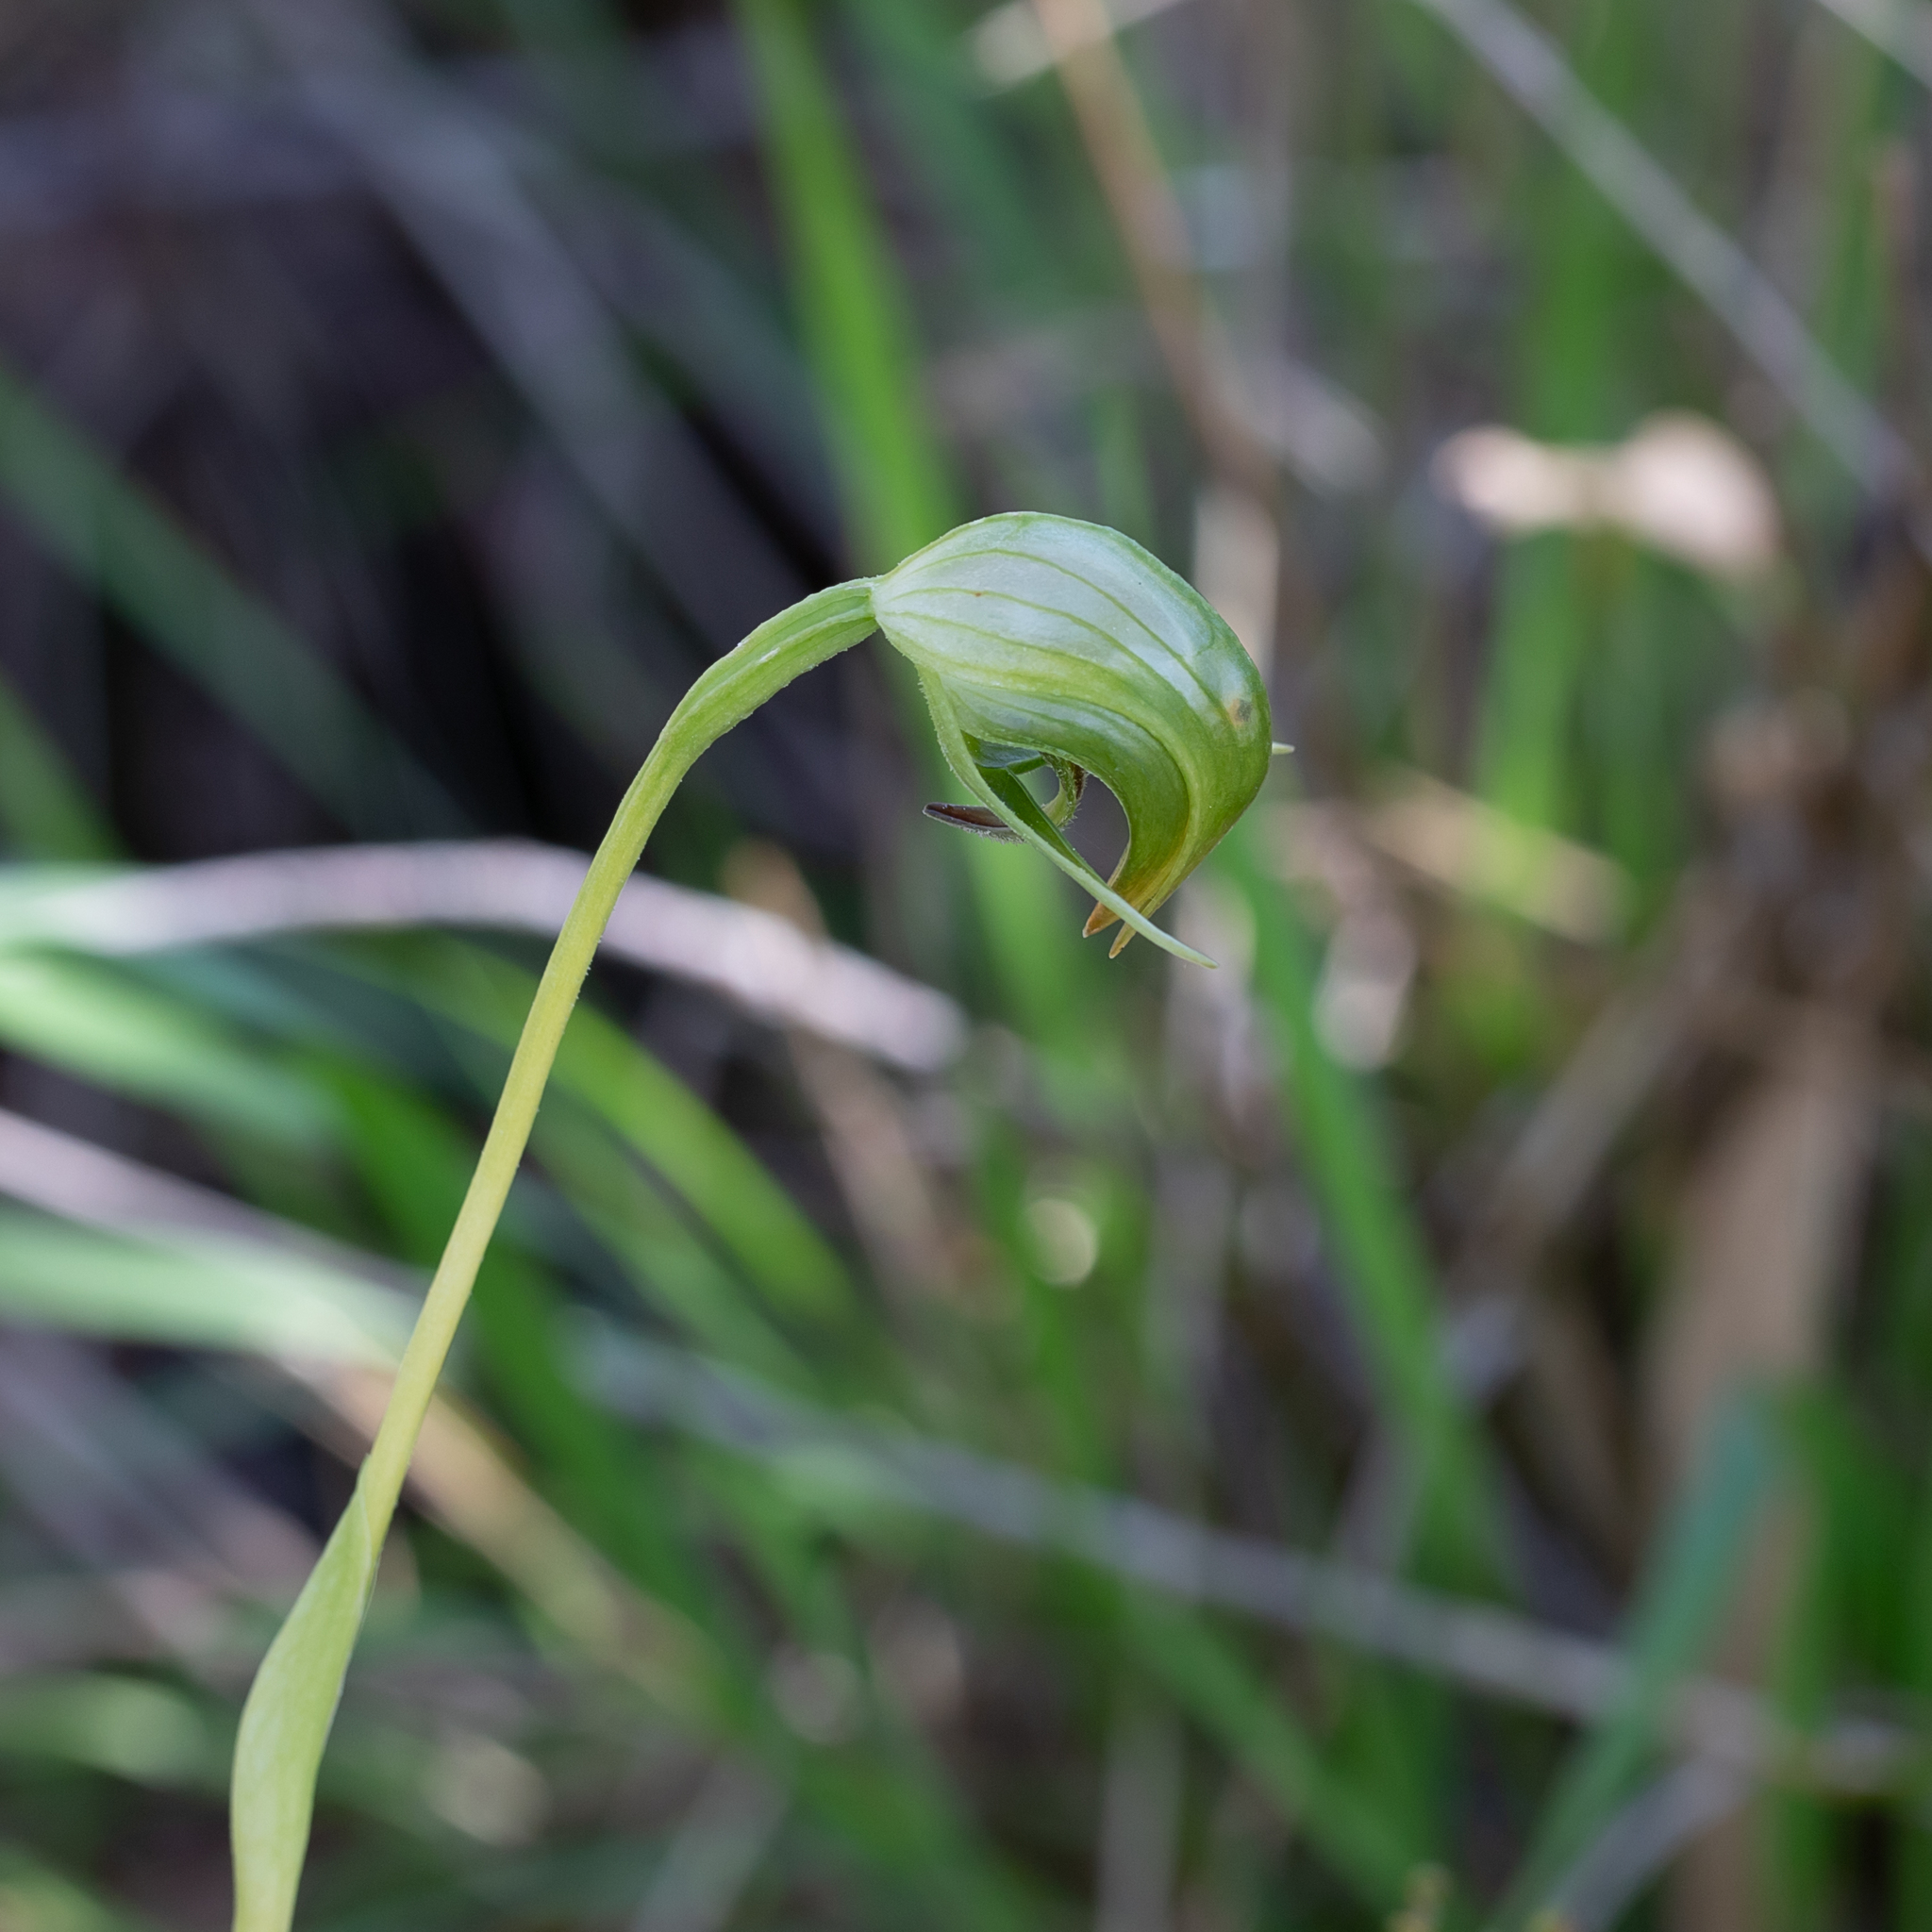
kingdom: Plantae
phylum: Tracheophyta
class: Liliopsida
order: Asparagales
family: Orchidaceae
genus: Pterostylis
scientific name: Pterostylis nutans
